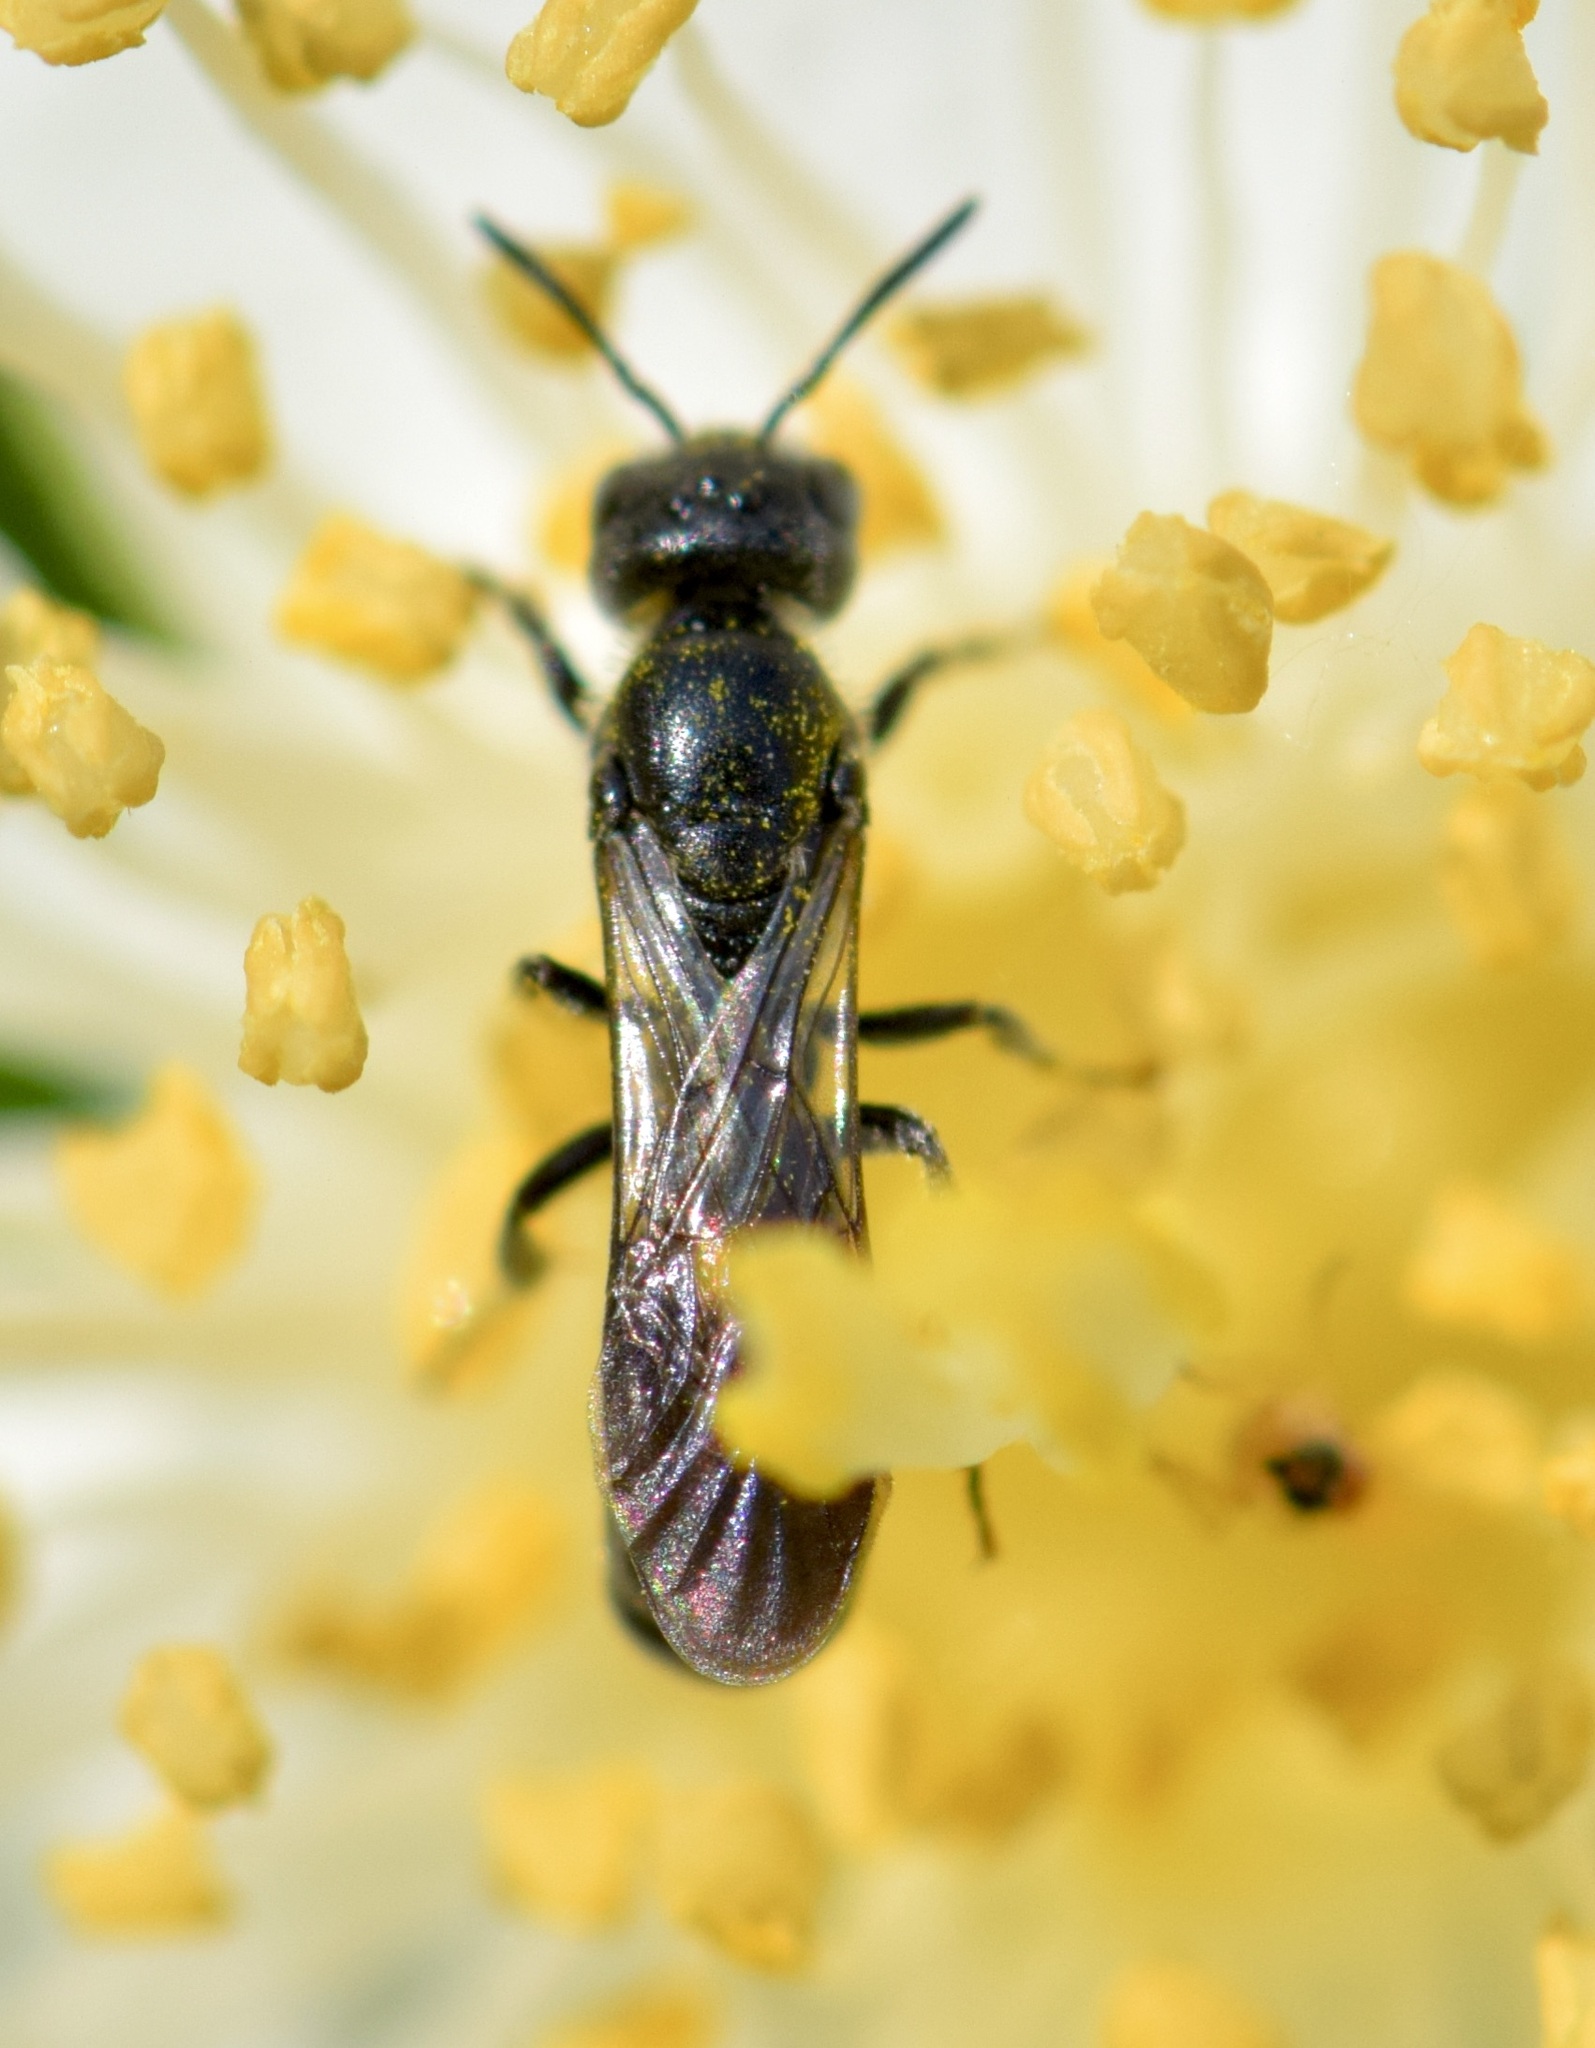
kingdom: Animalia
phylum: Arthropoda
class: Insecta
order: Hymenoptera
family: Megachilidae
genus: Chelostoma
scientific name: Chelostoma philadelphi
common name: Mock-orange scissor bee
